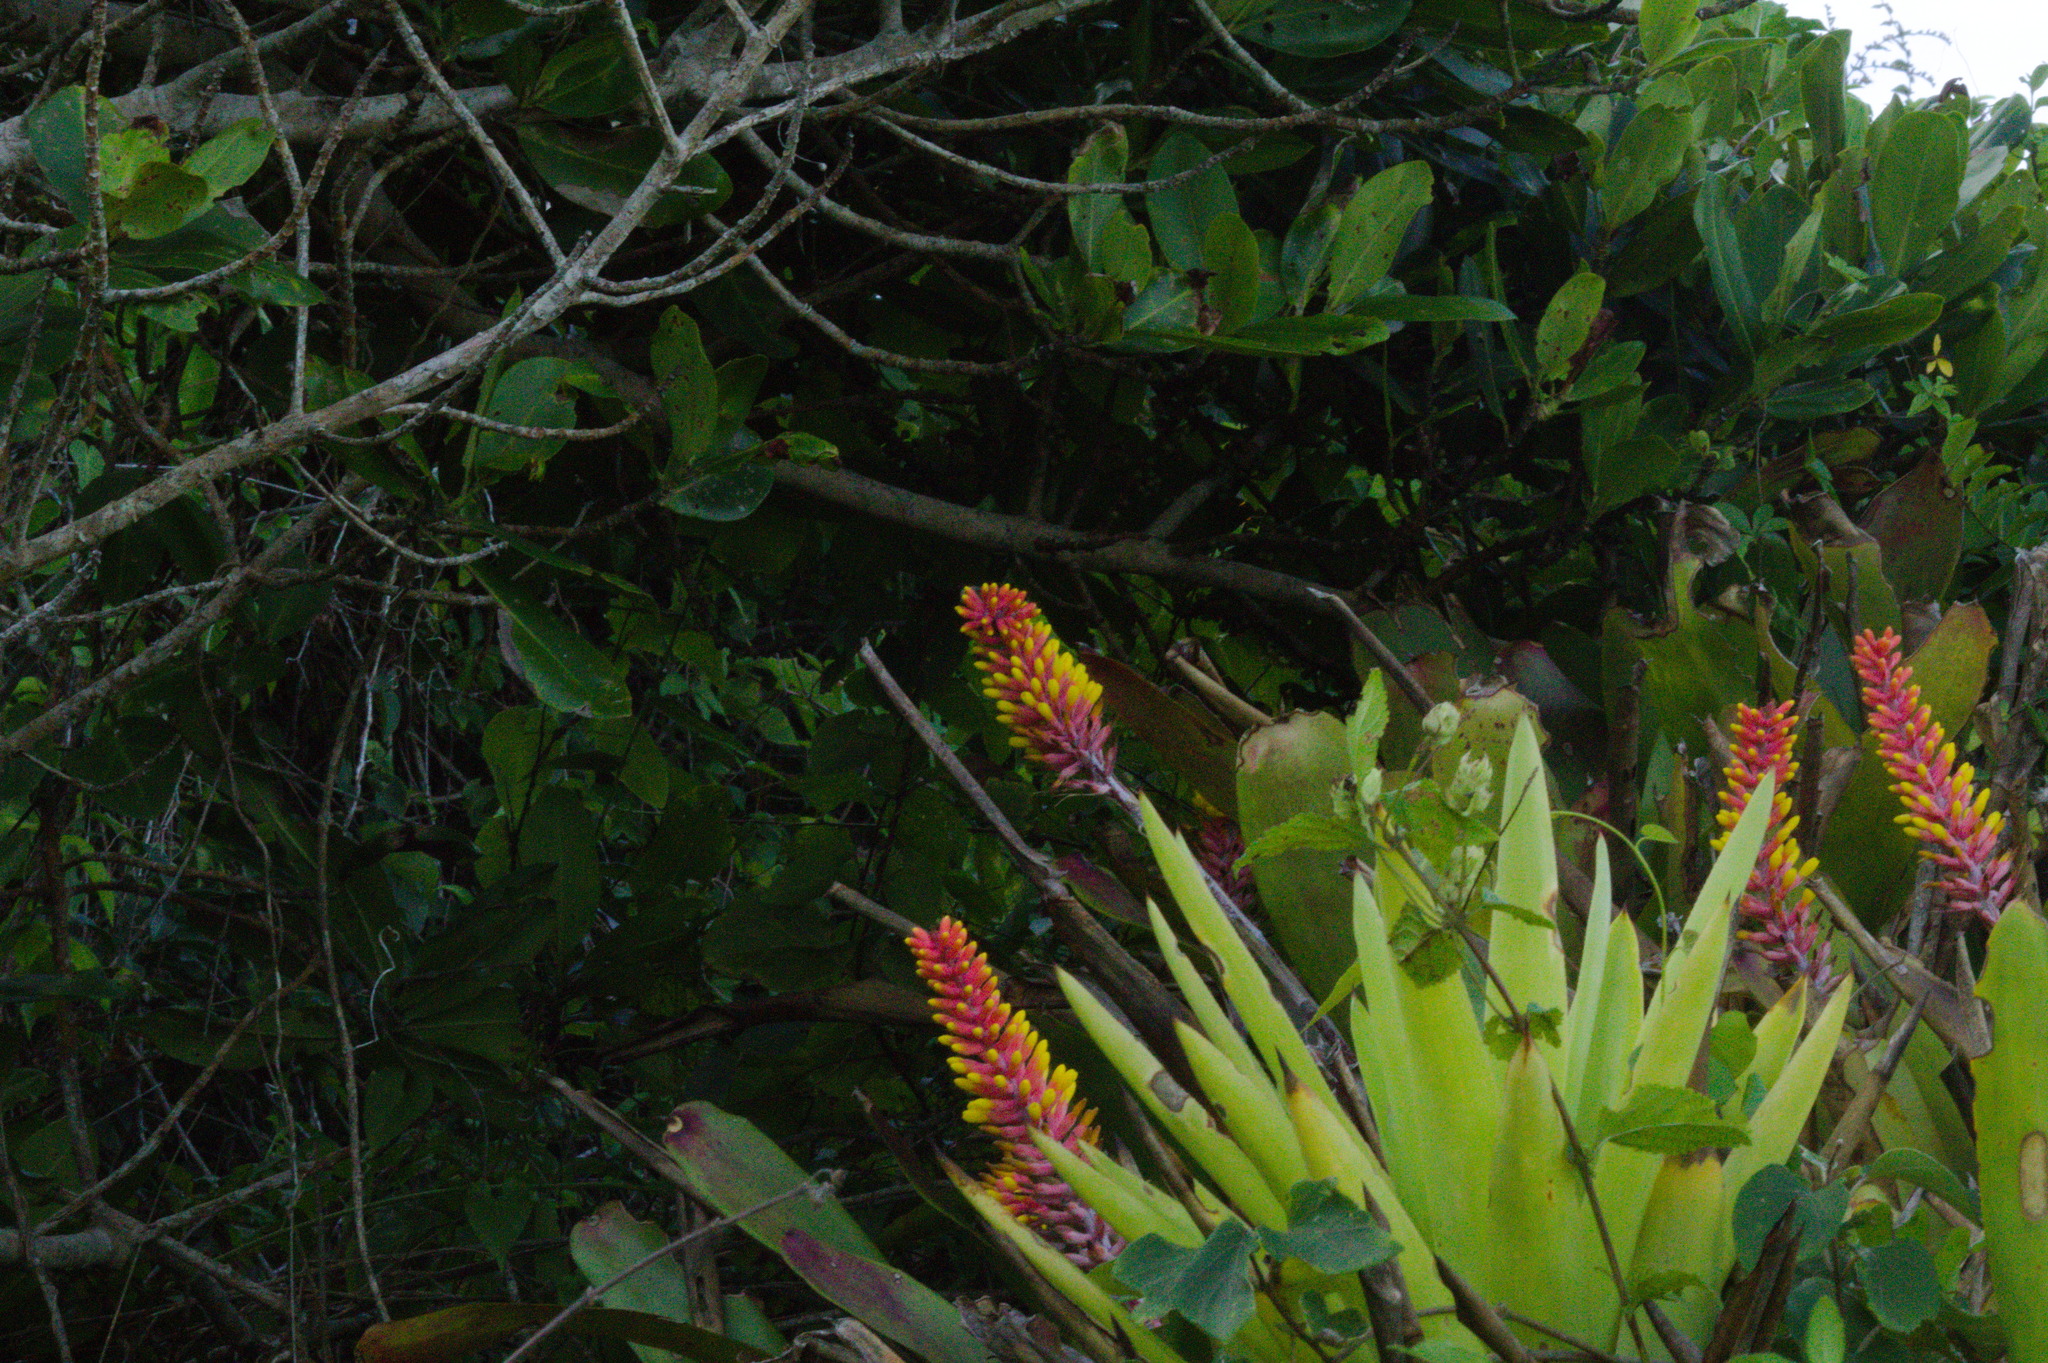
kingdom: Plantae
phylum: Tracheophyta
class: Liliopsida
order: Poales
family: Bromeliaceae
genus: Aechmea
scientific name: Aechmea kertesziae
